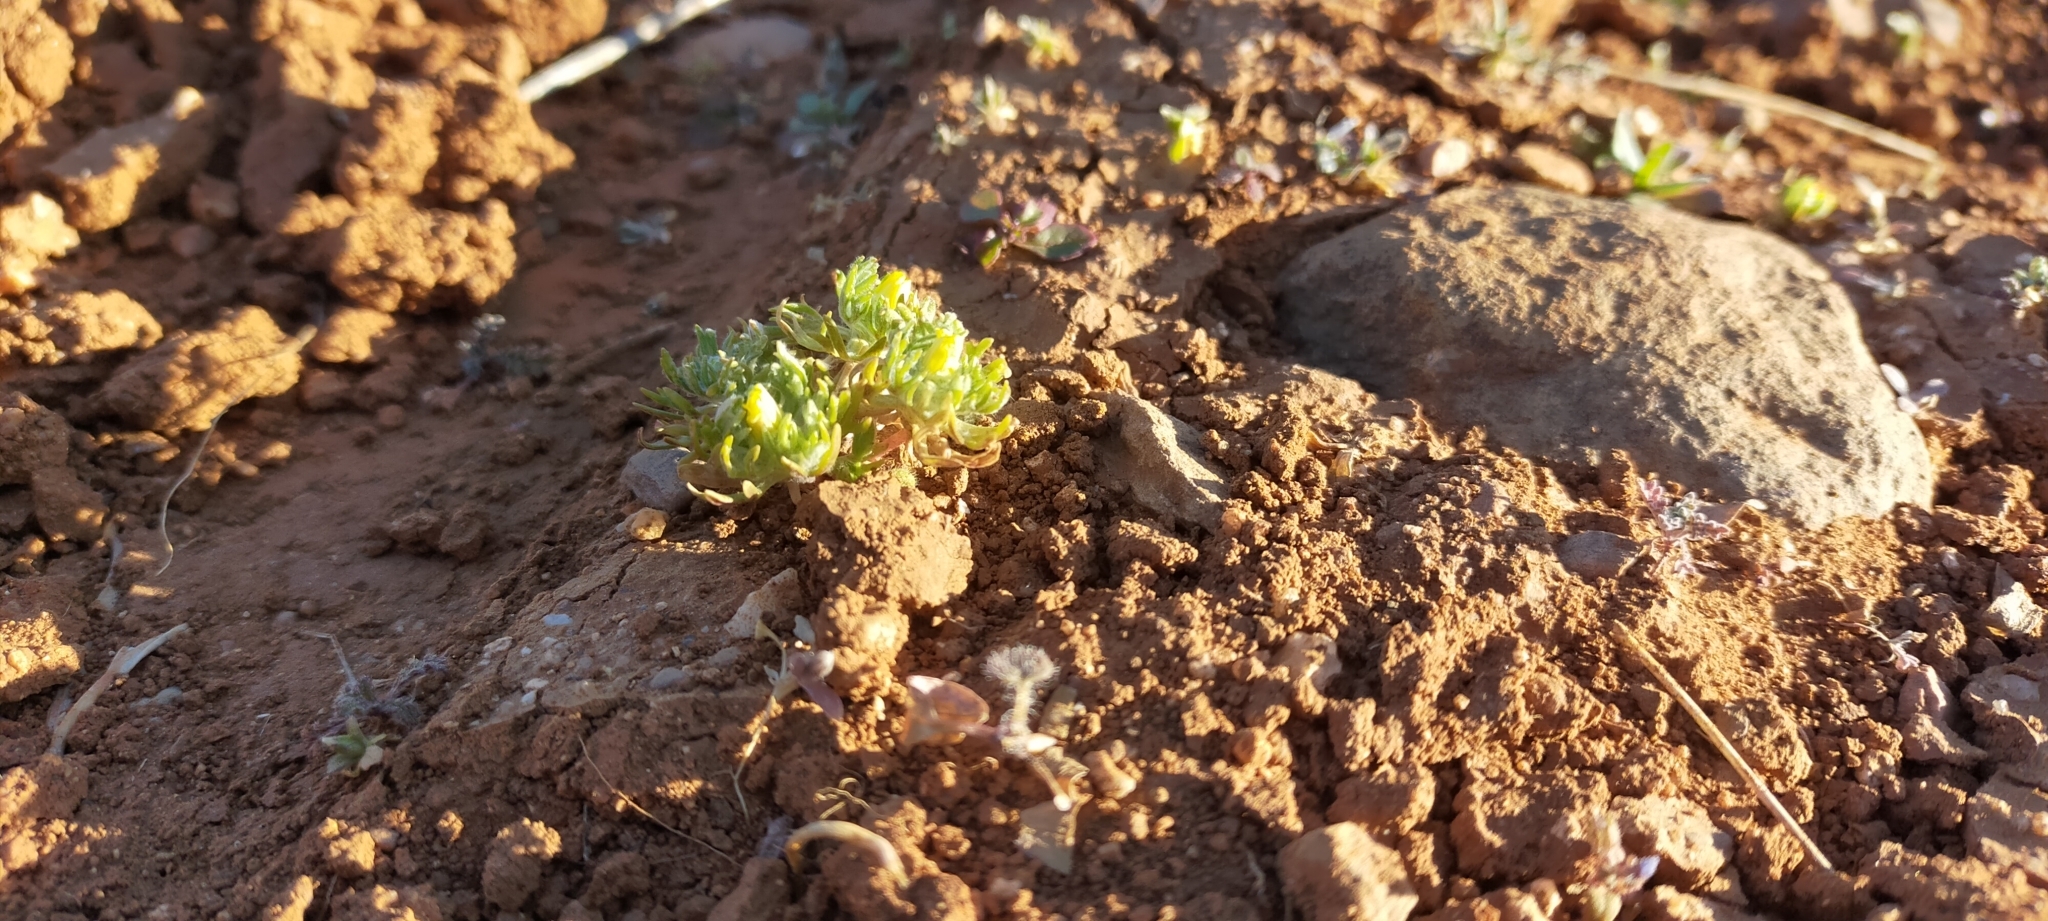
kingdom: Plantae
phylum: Tracheophyta
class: Magnoliopsida
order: Ranunculales
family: Ranunculaceae
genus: Ceratocephala
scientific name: Ceratocephala falcata
